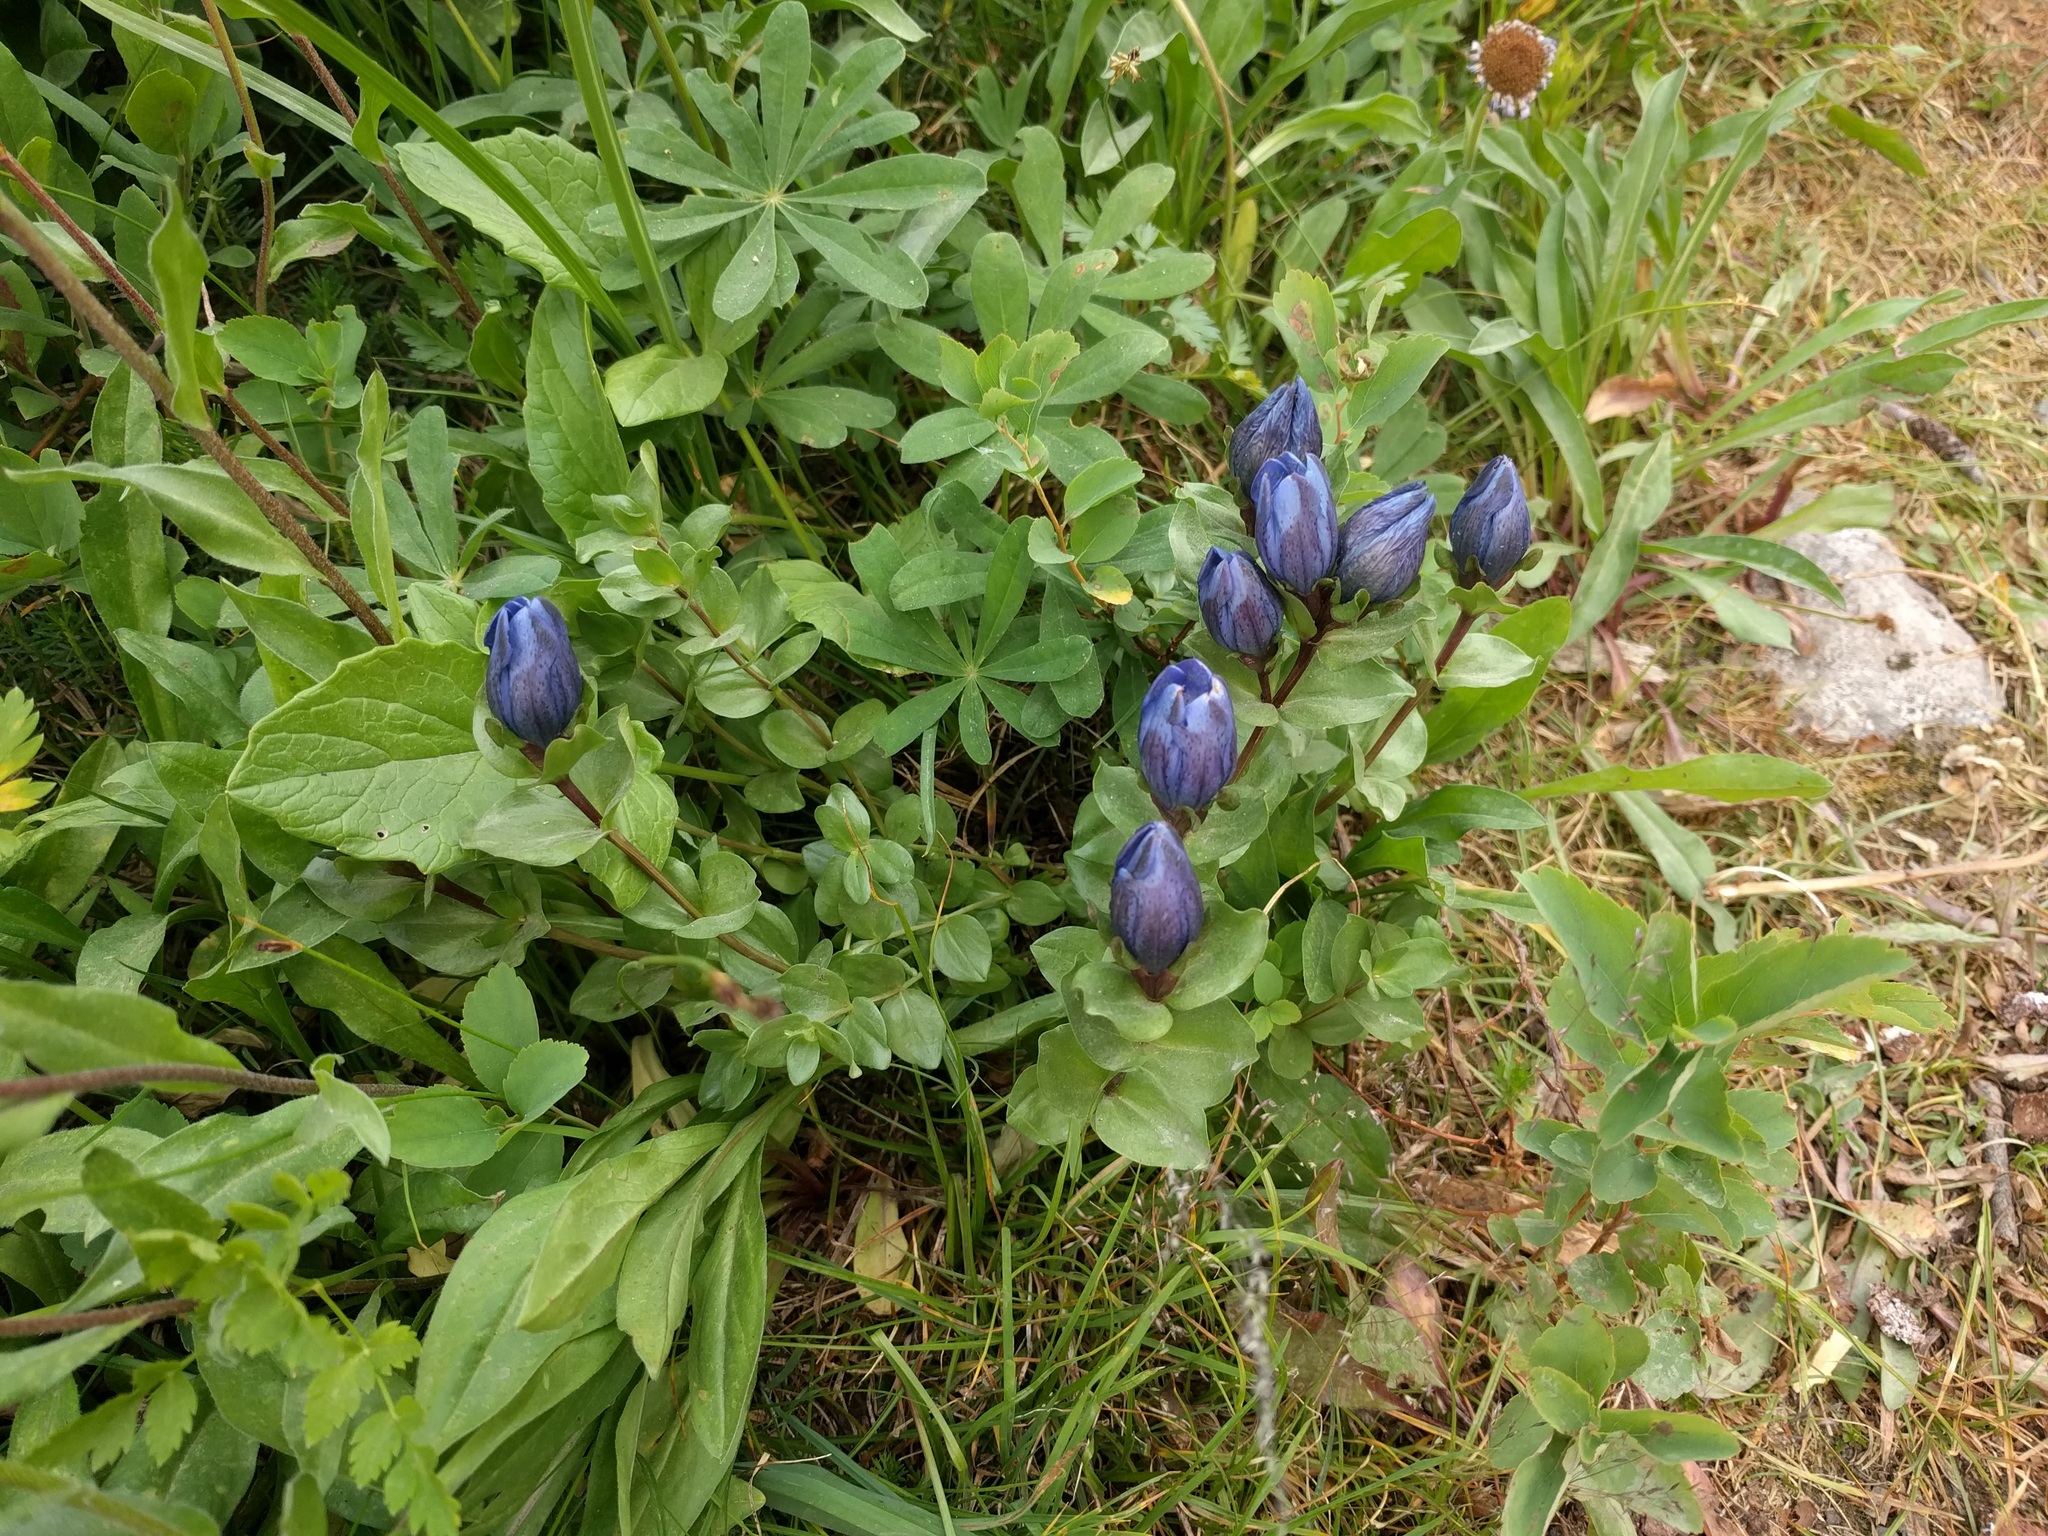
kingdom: Plantae
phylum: Tracheophyta
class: Magnoliopsida
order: Gentianales
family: Gentianaceae
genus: Gentiana
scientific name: Gentiana calycosa
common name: Rainier pleated gentian
